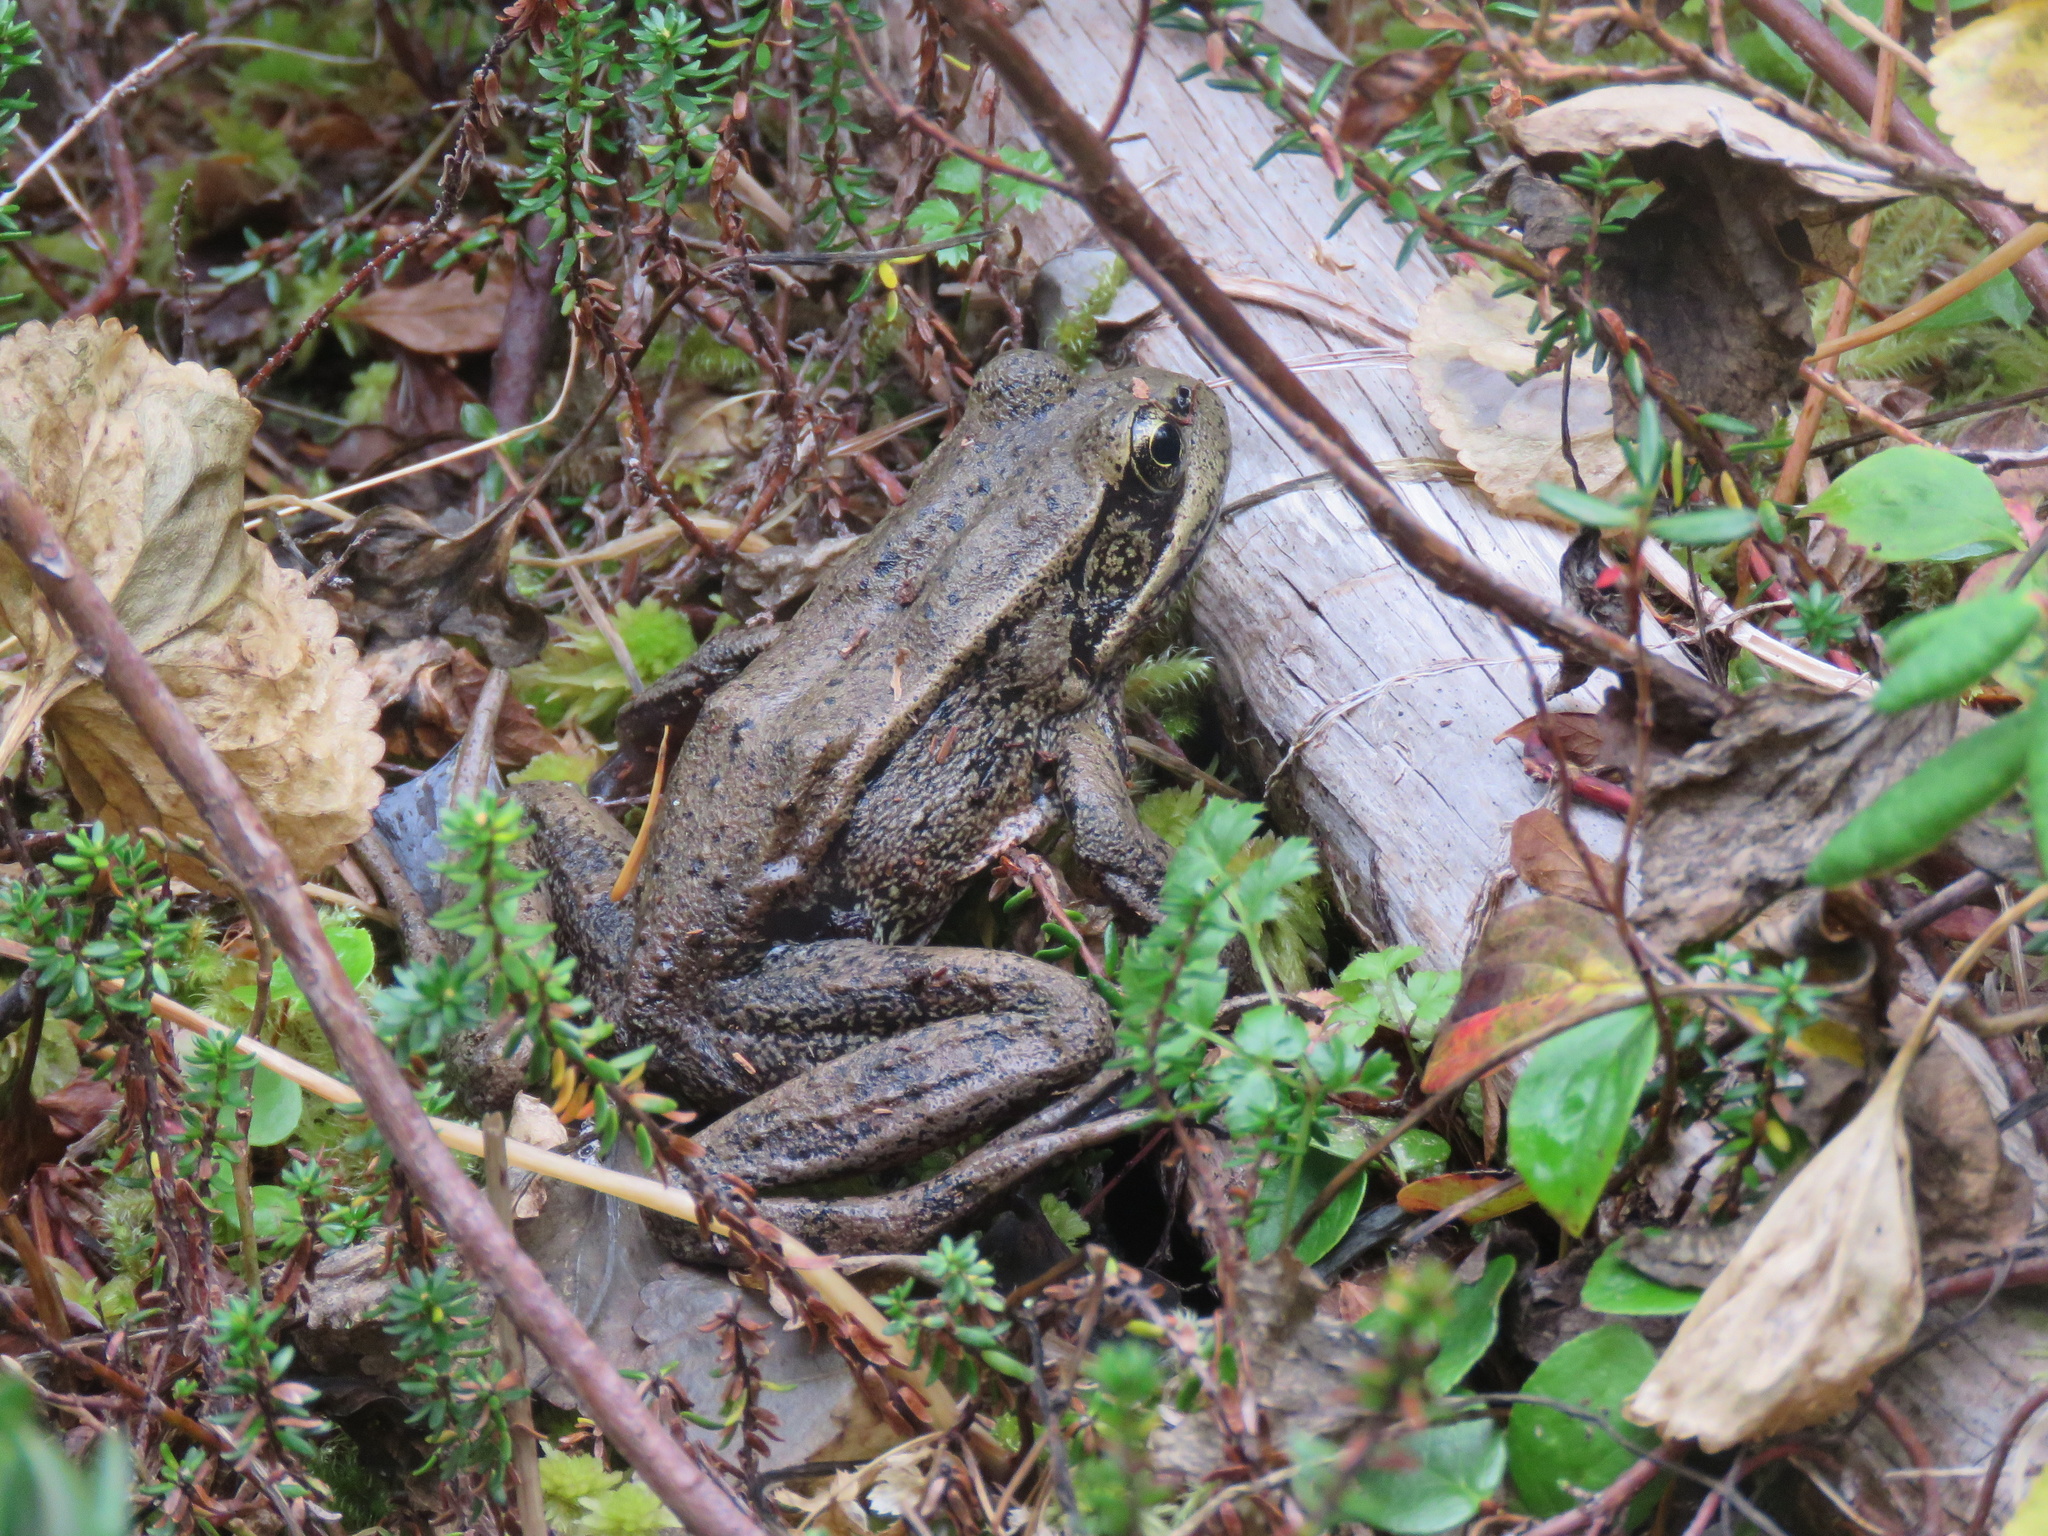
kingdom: Animalia
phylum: Chordata
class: Amphibia
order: Anura
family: Ranidae
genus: Rana
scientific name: Rana aurora
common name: Red-legged frog
